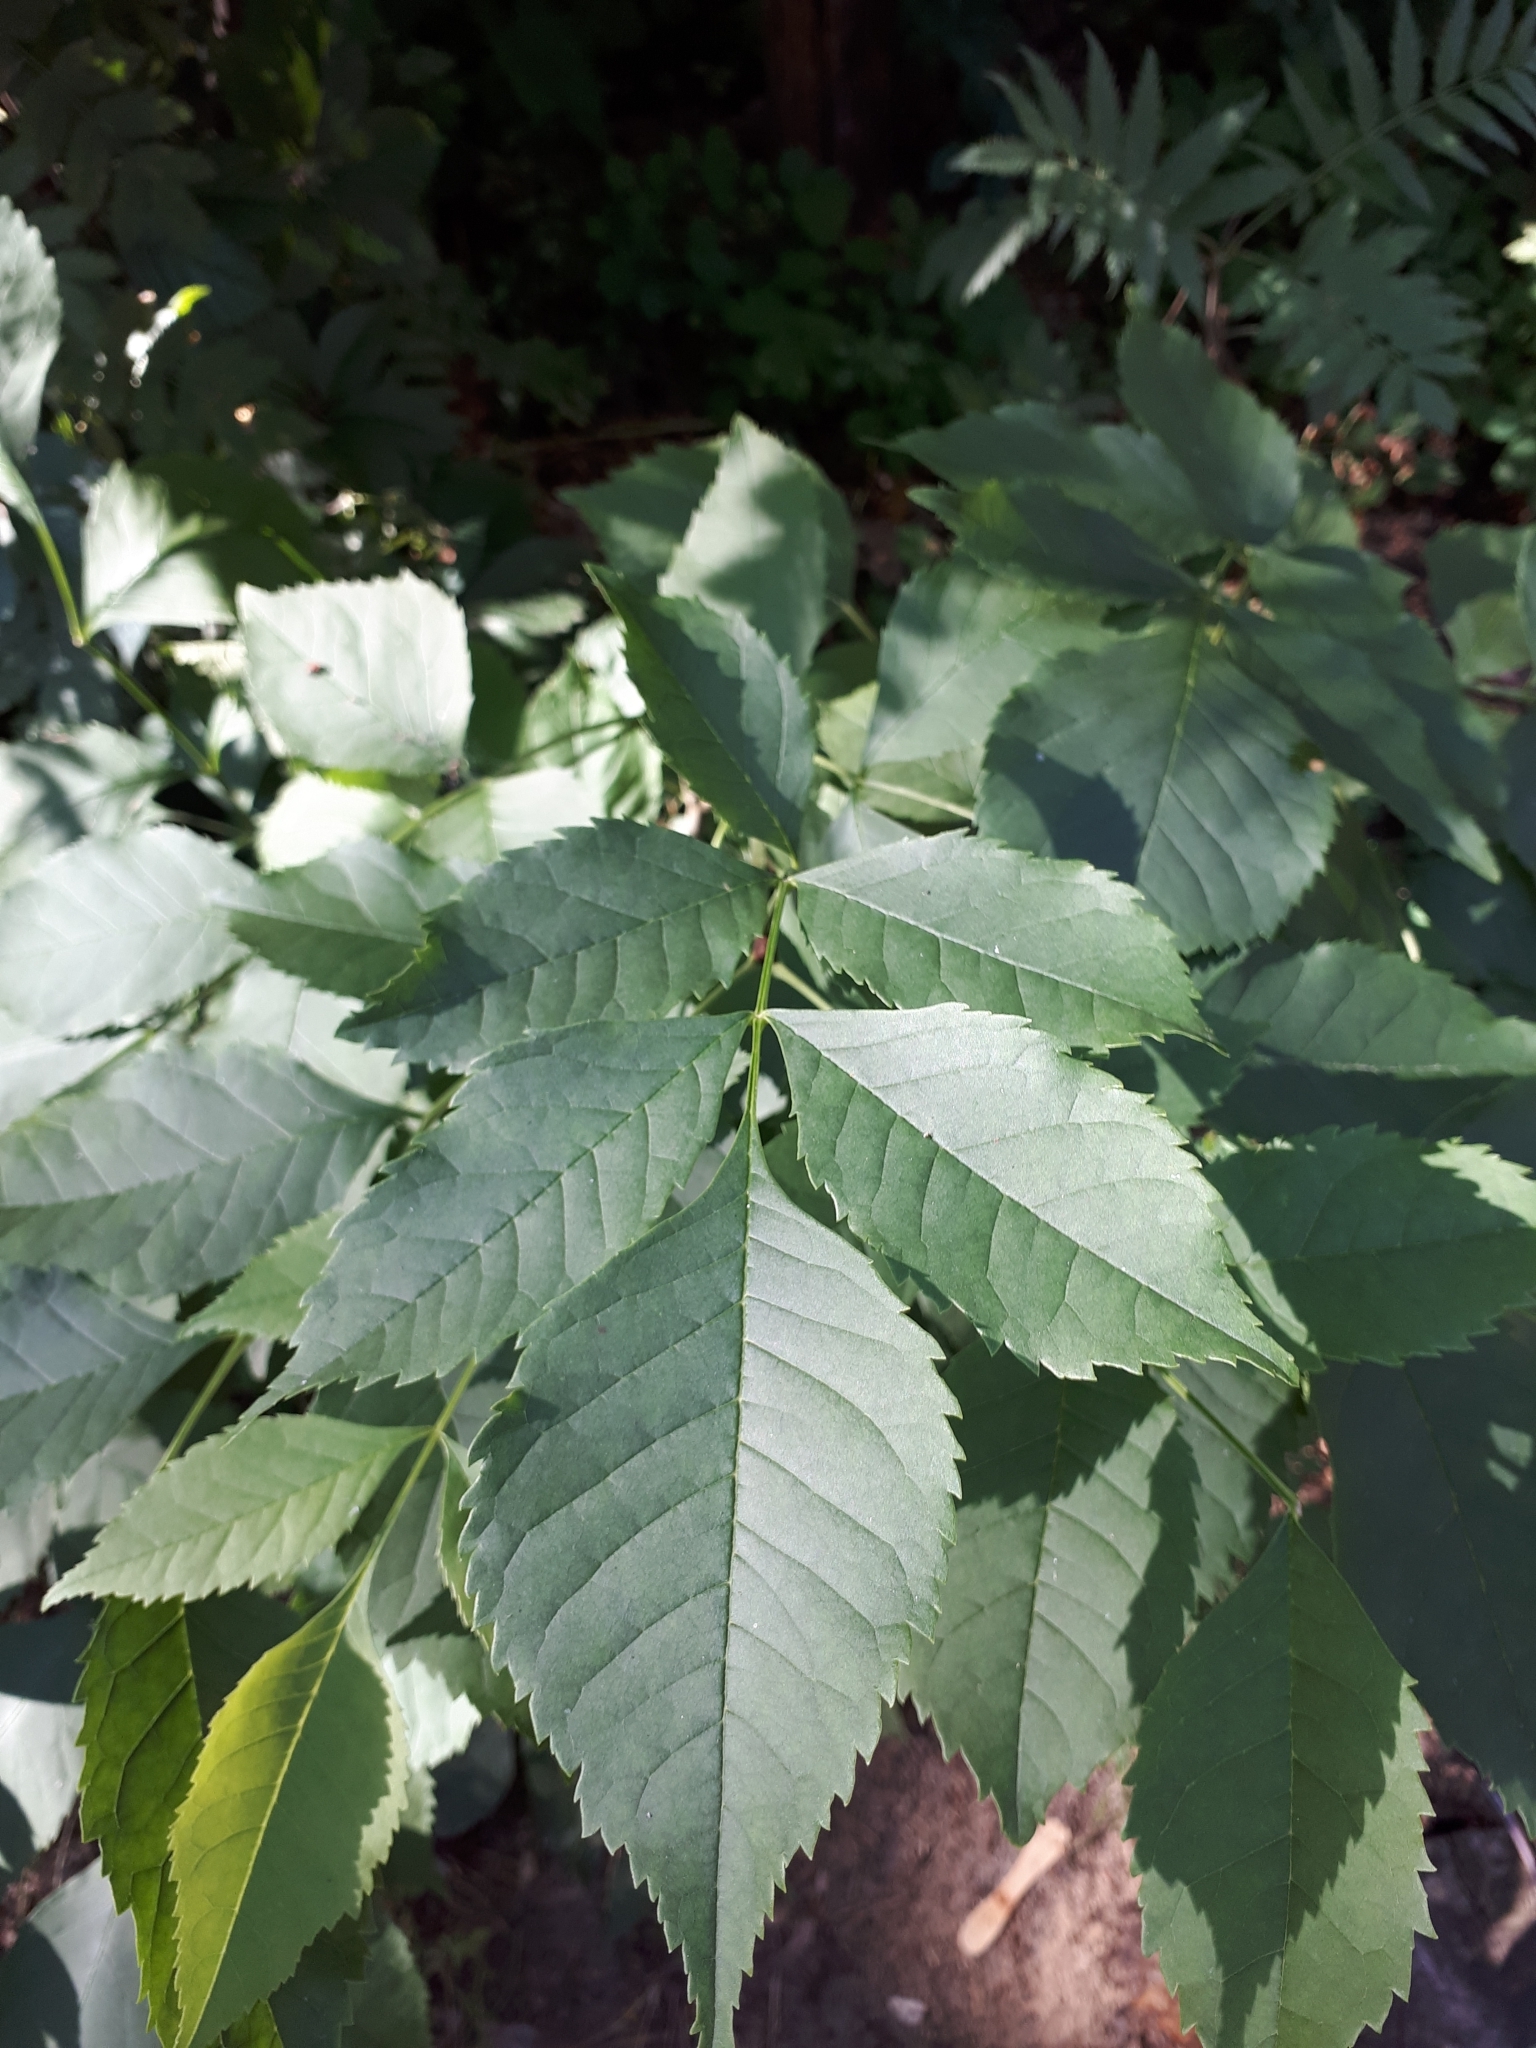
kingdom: Plantae
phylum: Tracheophyta
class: Magnoliopsida
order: Lamiales
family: Oleaceae
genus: Fraxinus
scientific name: Fraxinus pennsylvanica
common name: Green ash
